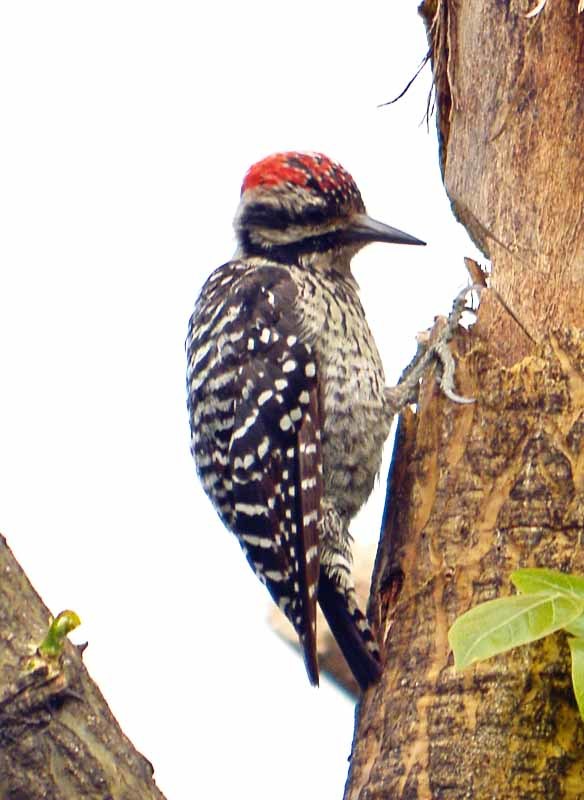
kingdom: Animalia
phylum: Chordata
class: Aves
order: Piciformes
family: Picidae
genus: Dryobates
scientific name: Dryobates scalaris
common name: Ladder-backed woodpecker
